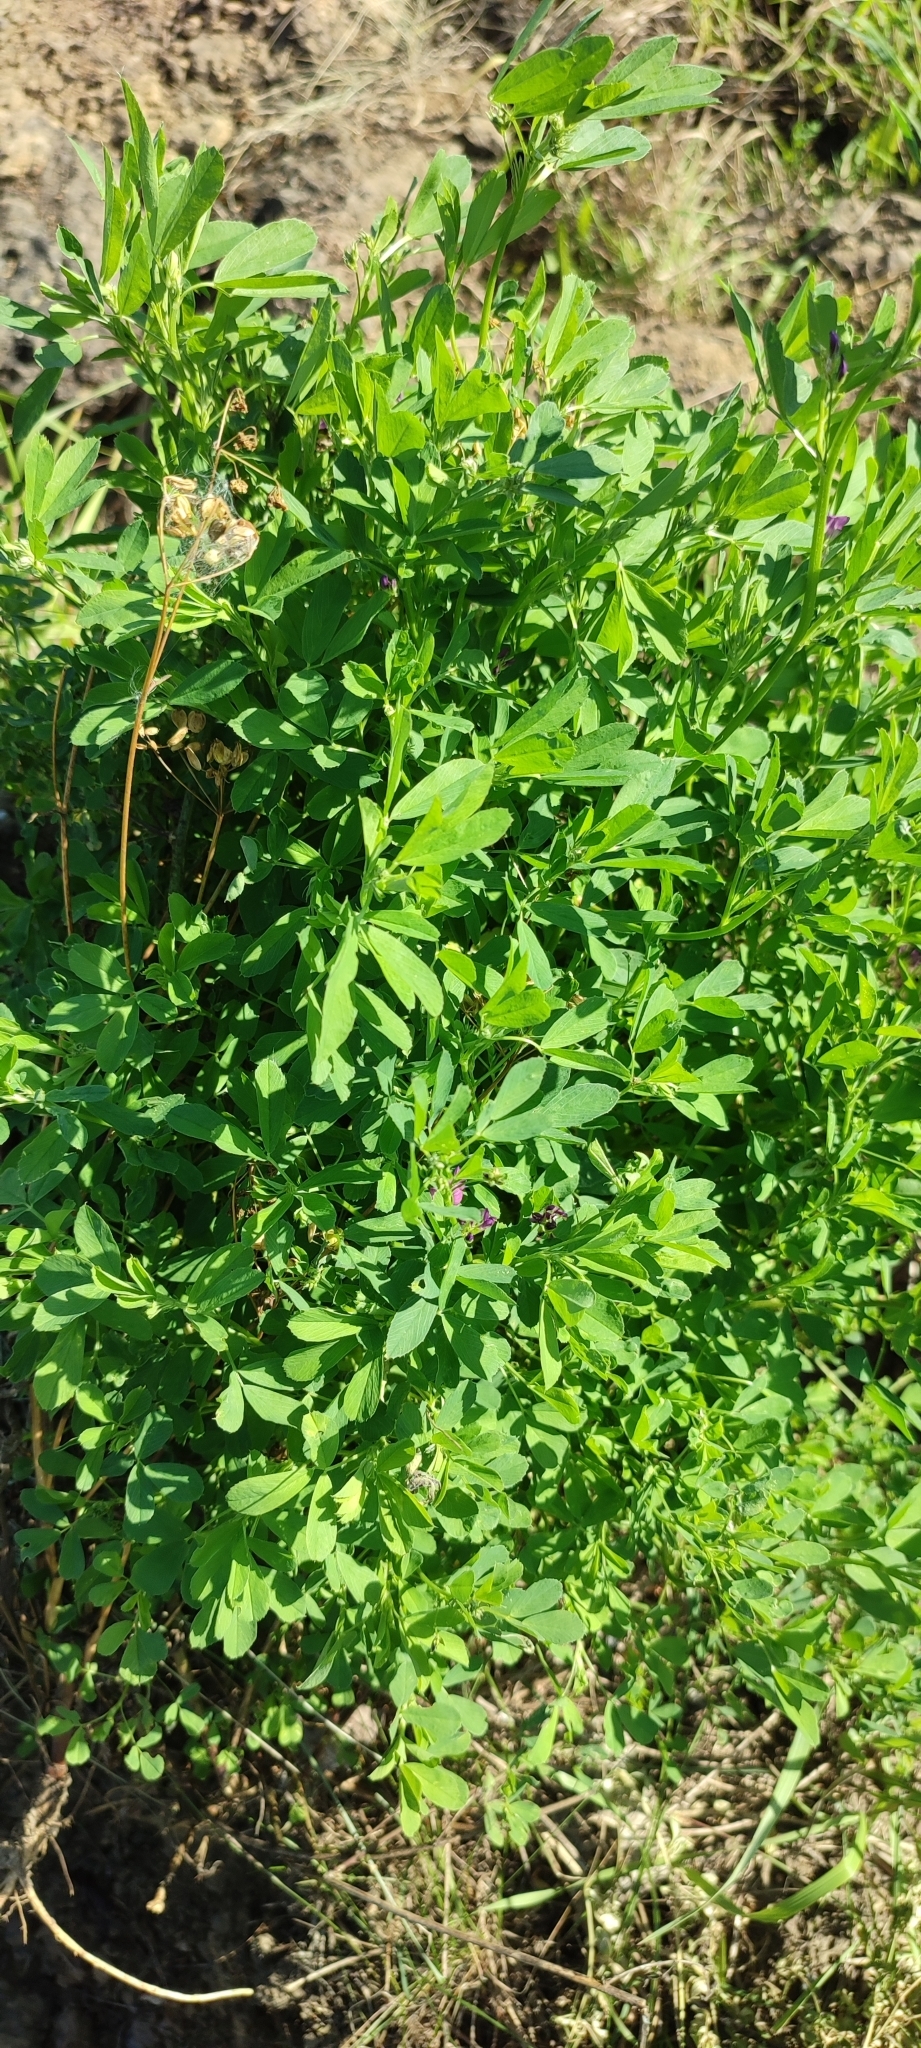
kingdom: Plantae
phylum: Tracheophyta
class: Magnoliopsida
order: Fabales
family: Fabaceae
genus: Medicago
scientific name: Medicago varia
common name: Sand lucerne
